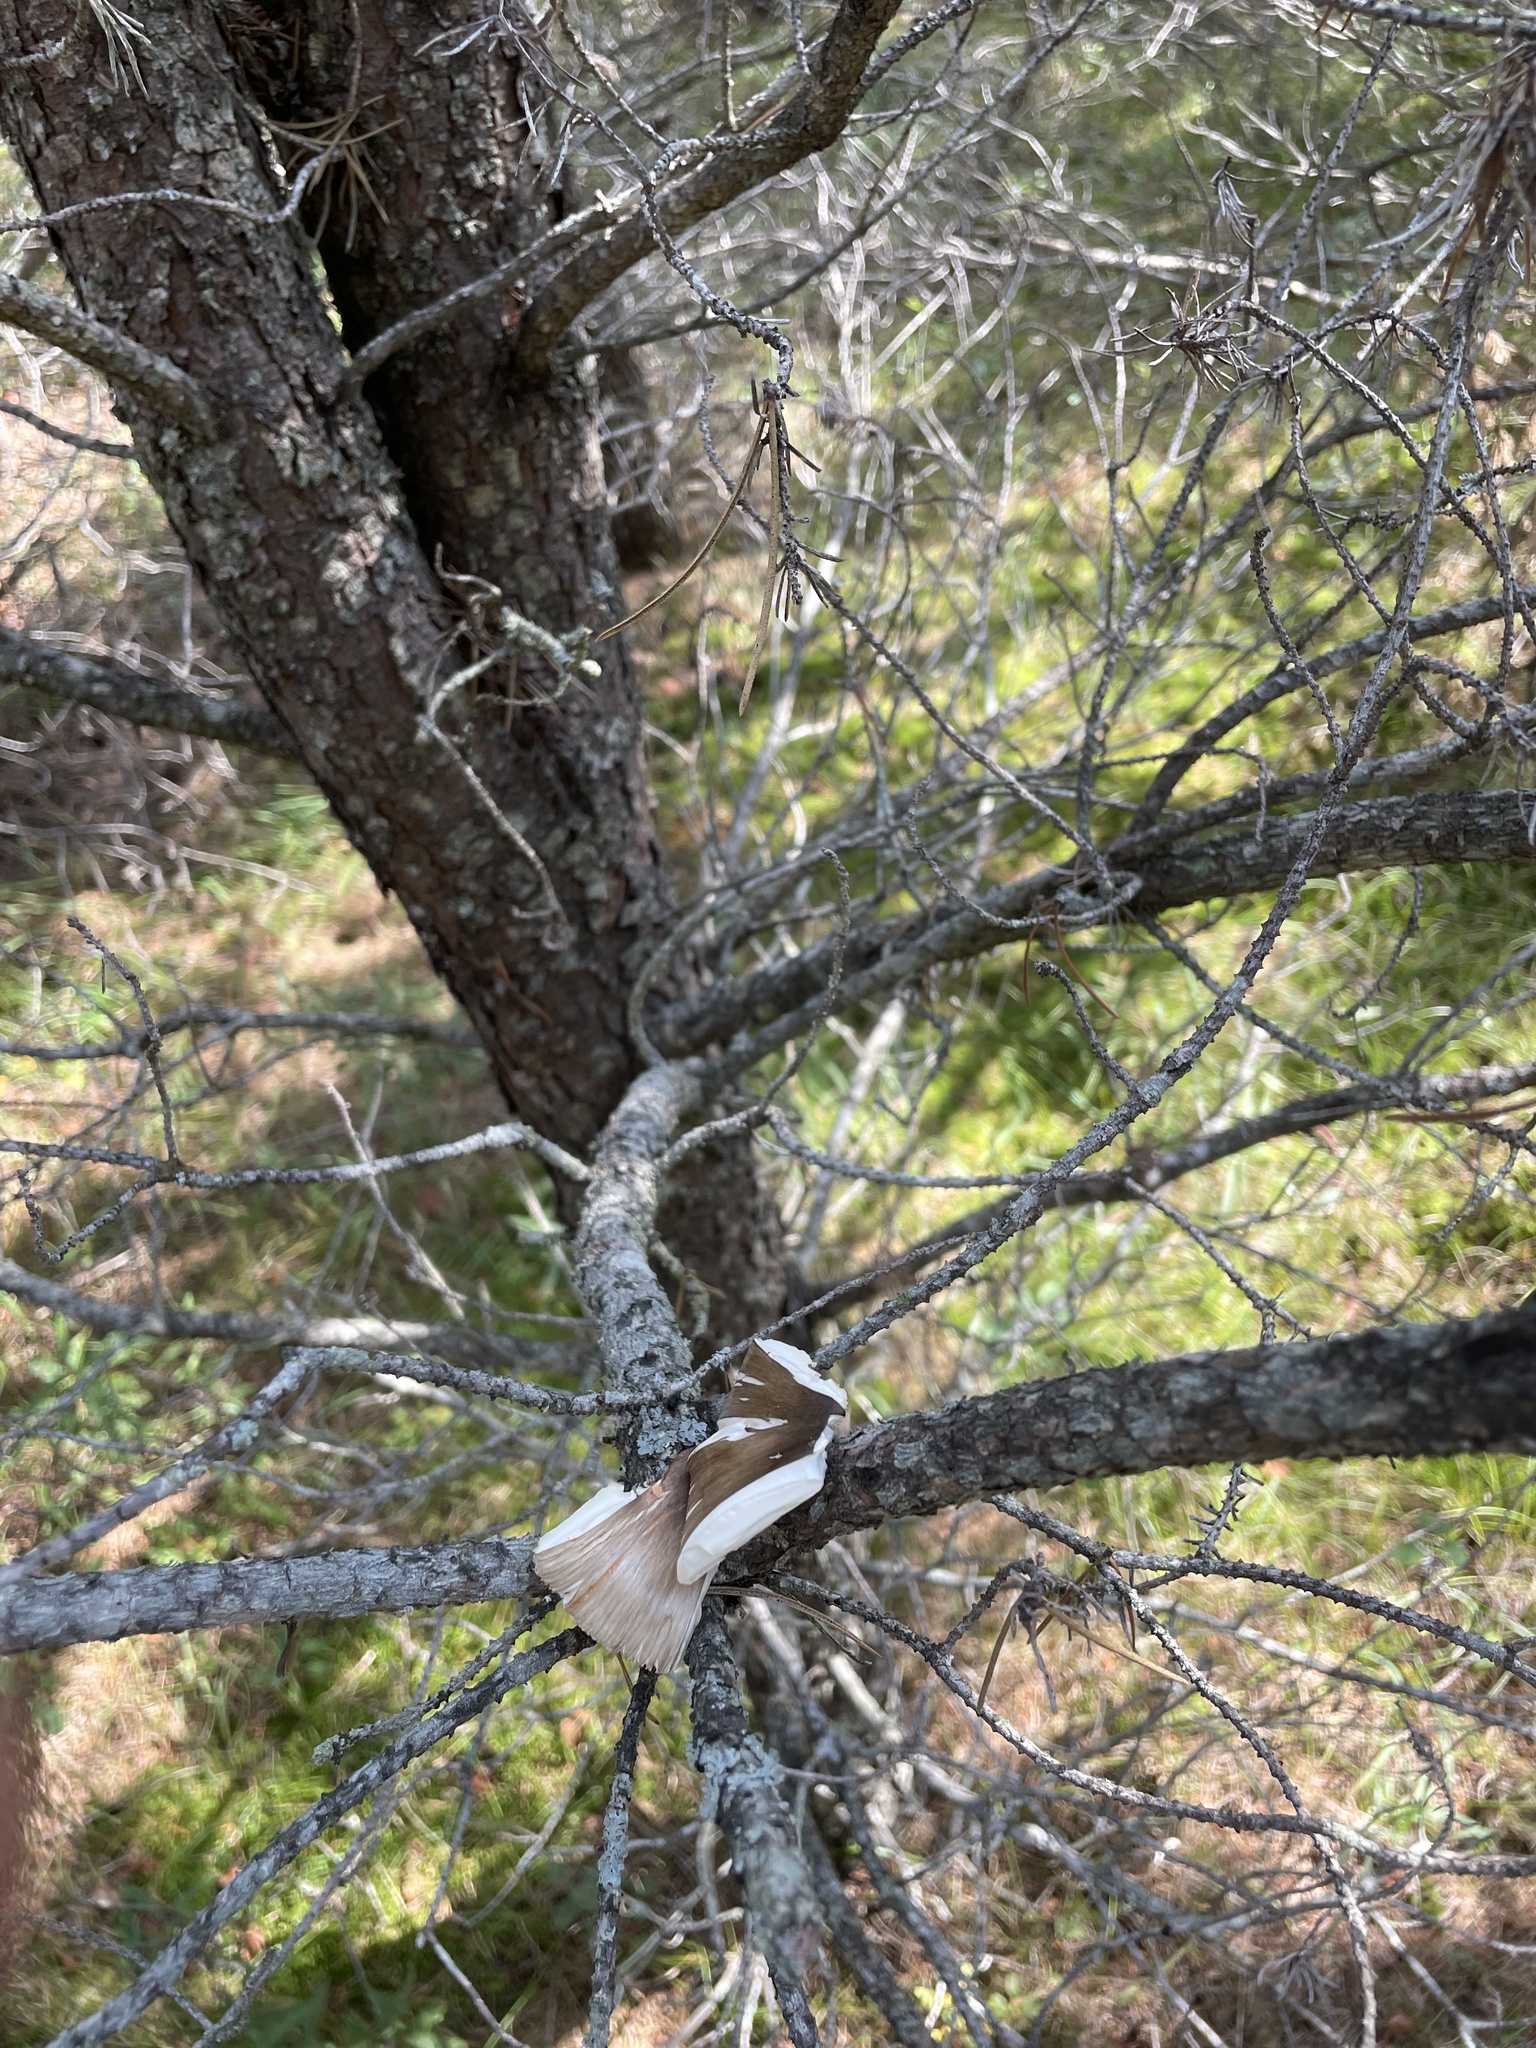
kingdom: Animalia
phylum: Chordata
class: Mammalia
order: Rodentia
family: Sciuridae
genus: Tamiasciurus
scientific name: Tamiasciurus hudsonicus
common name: Red squirrel
